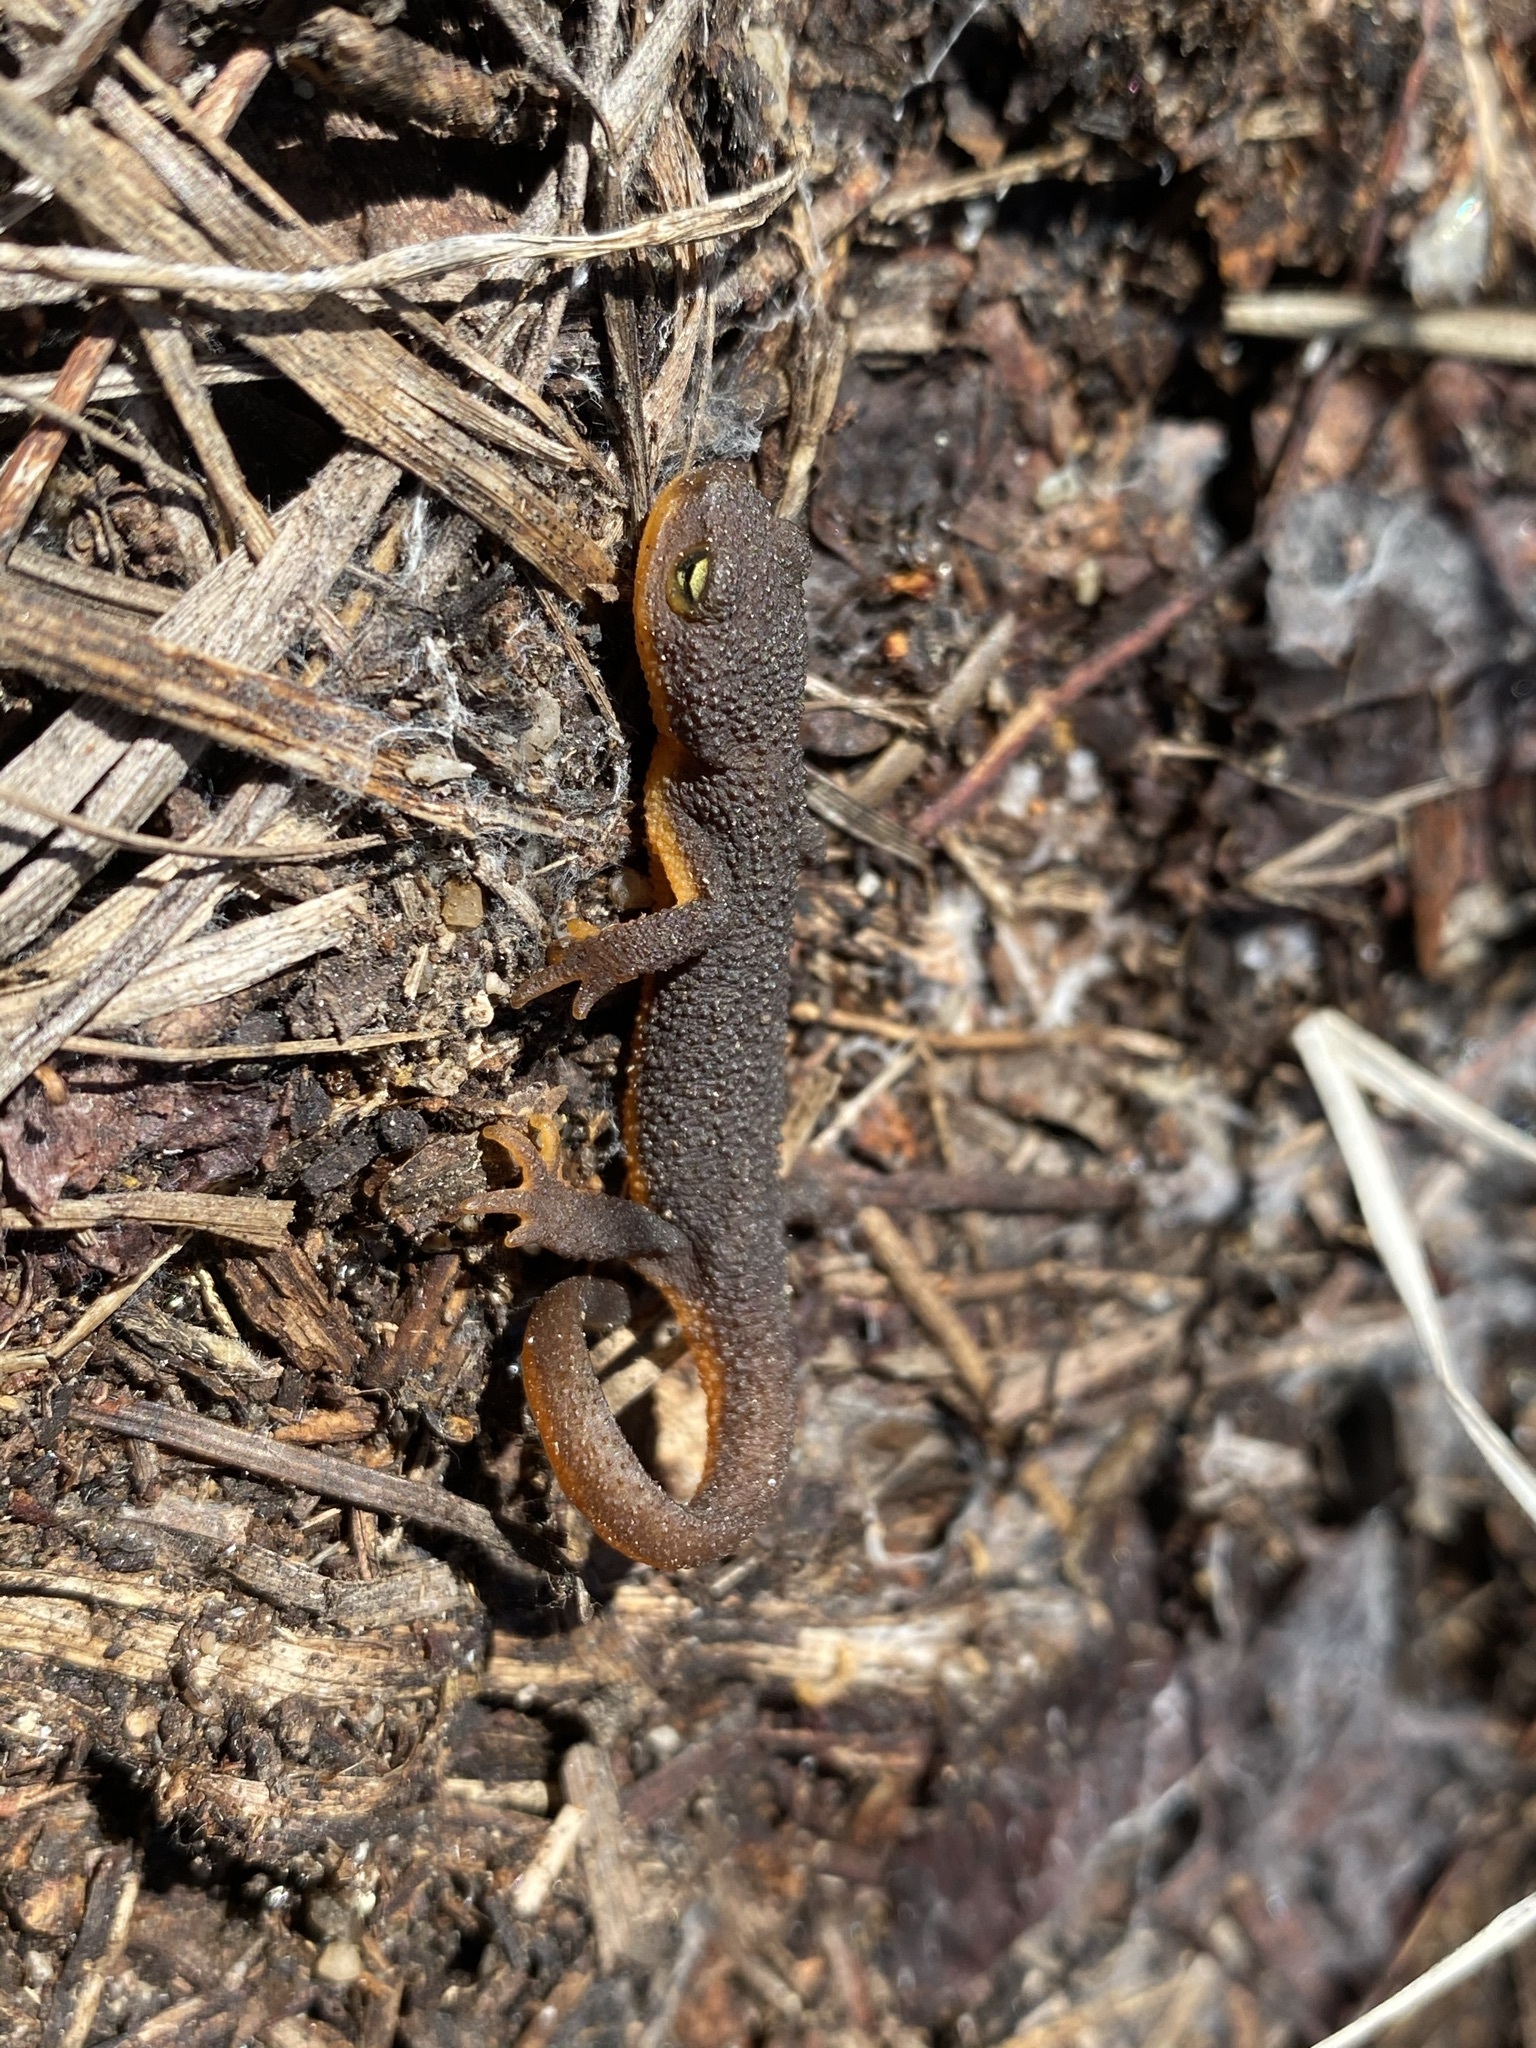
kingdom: Animalia
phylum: Chordata
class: Amphibia
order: Caudata
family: Salamandridae
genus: Taricha
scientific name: Taricha granulosa
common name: Roughskin newt
